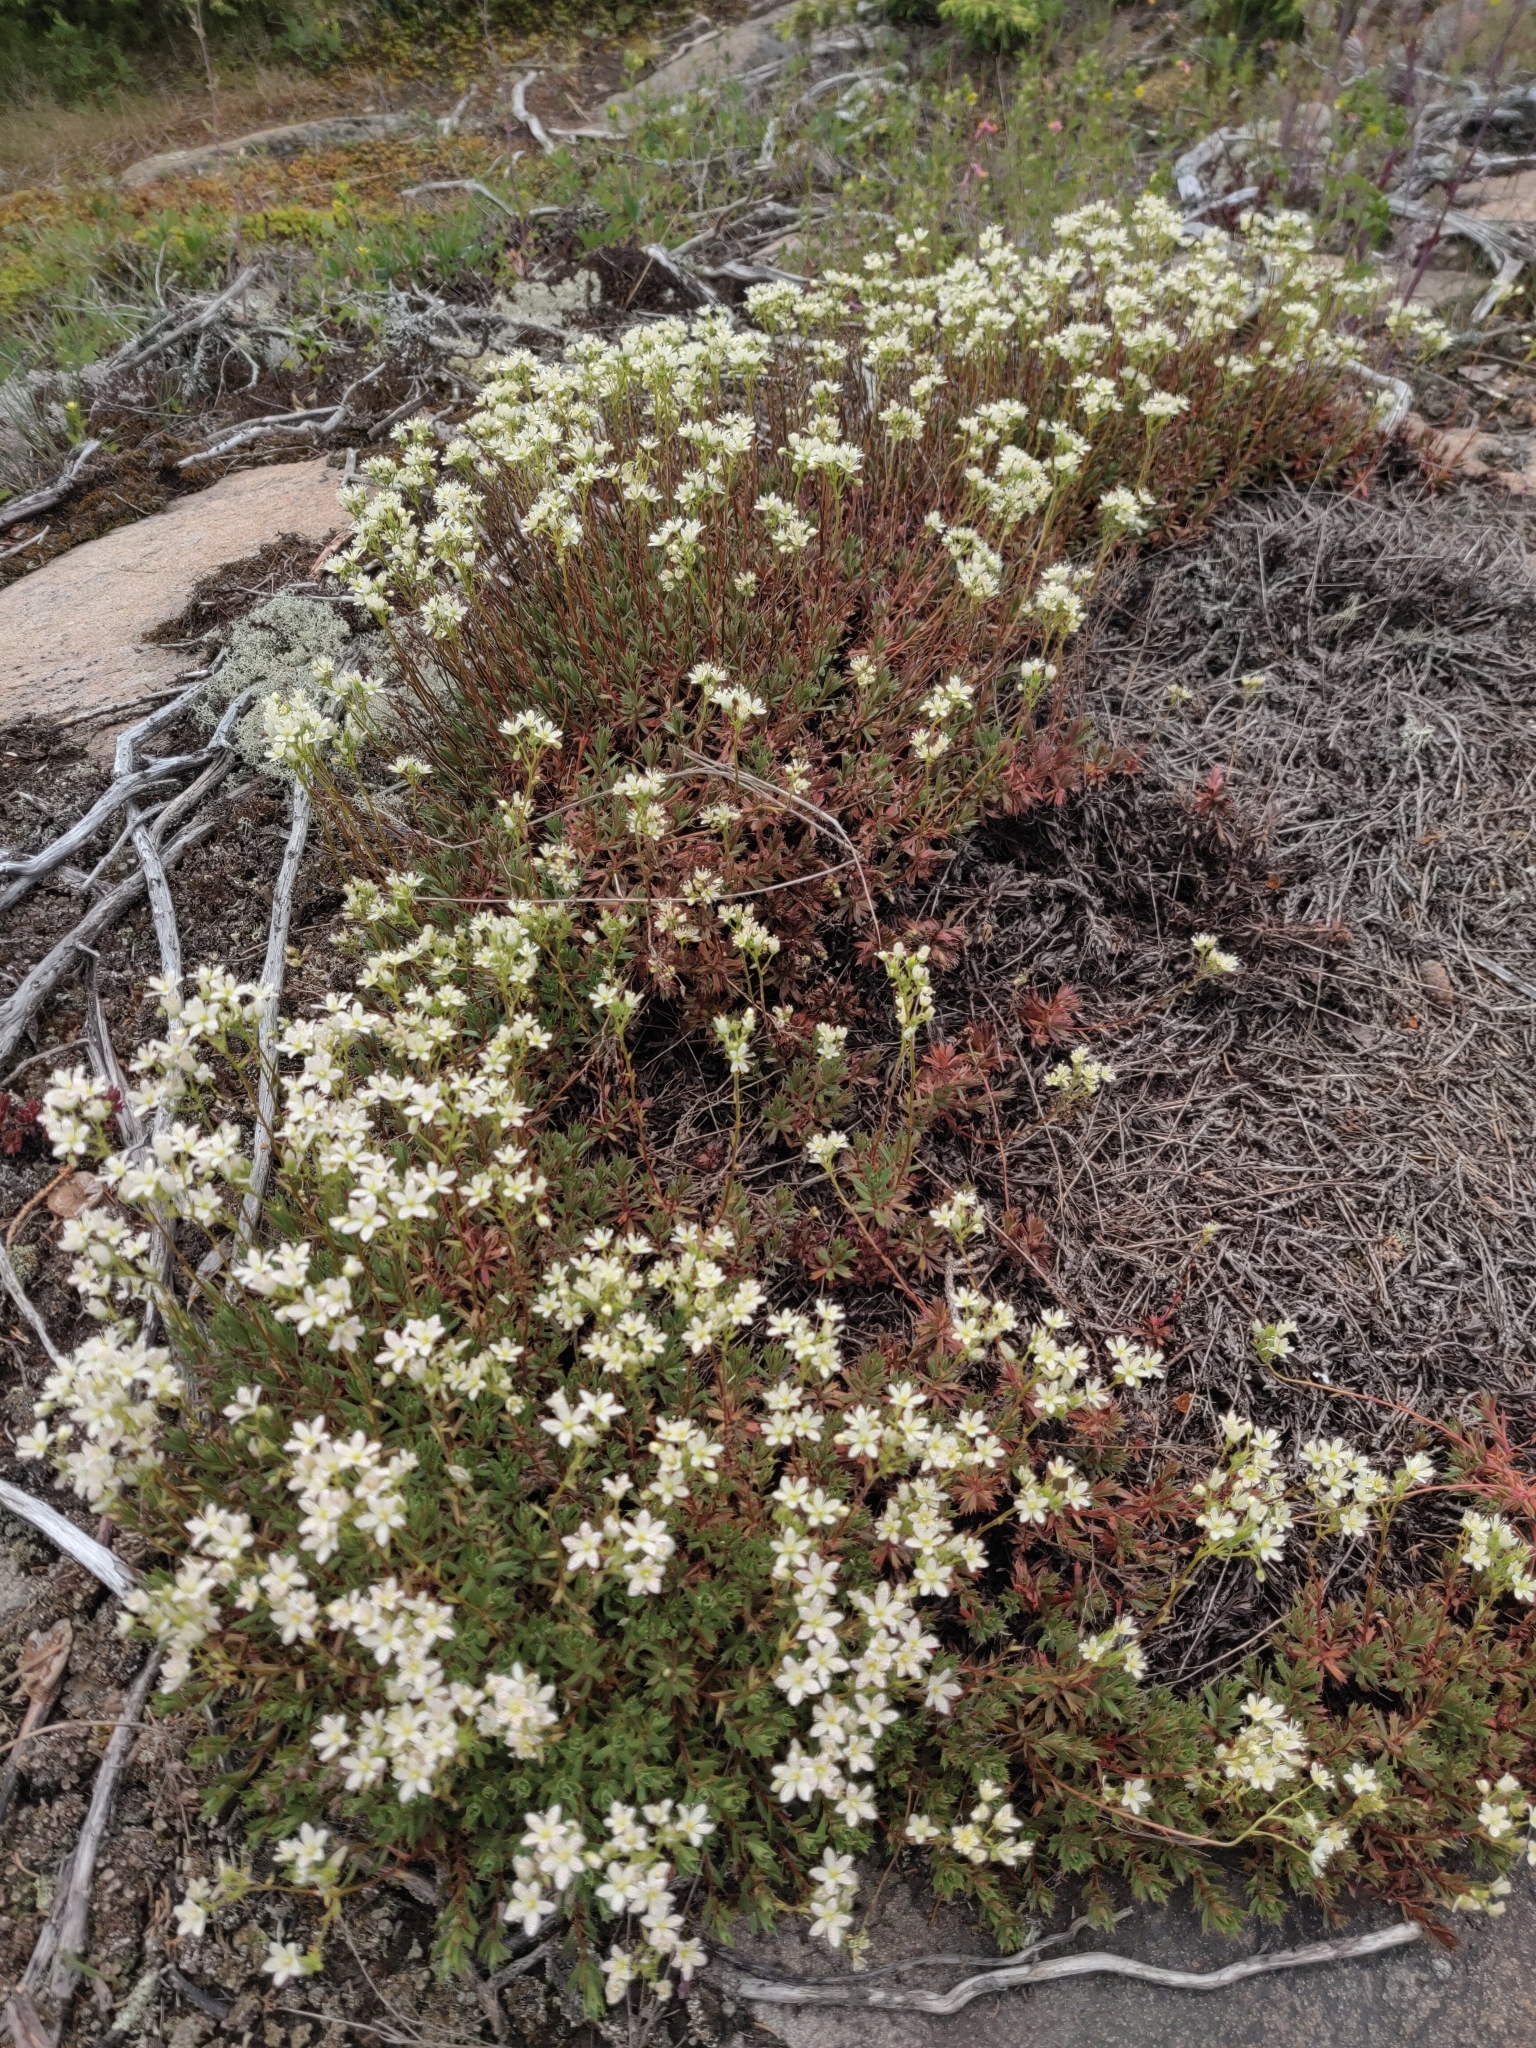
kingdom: Plantae
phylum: Tracheophyta
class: Magnoliopsida
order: Saxifragales
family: Saxifragaceae
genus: Saxifraga
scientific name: Saxifraga tricuspidata
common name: Prickly saxifrage
